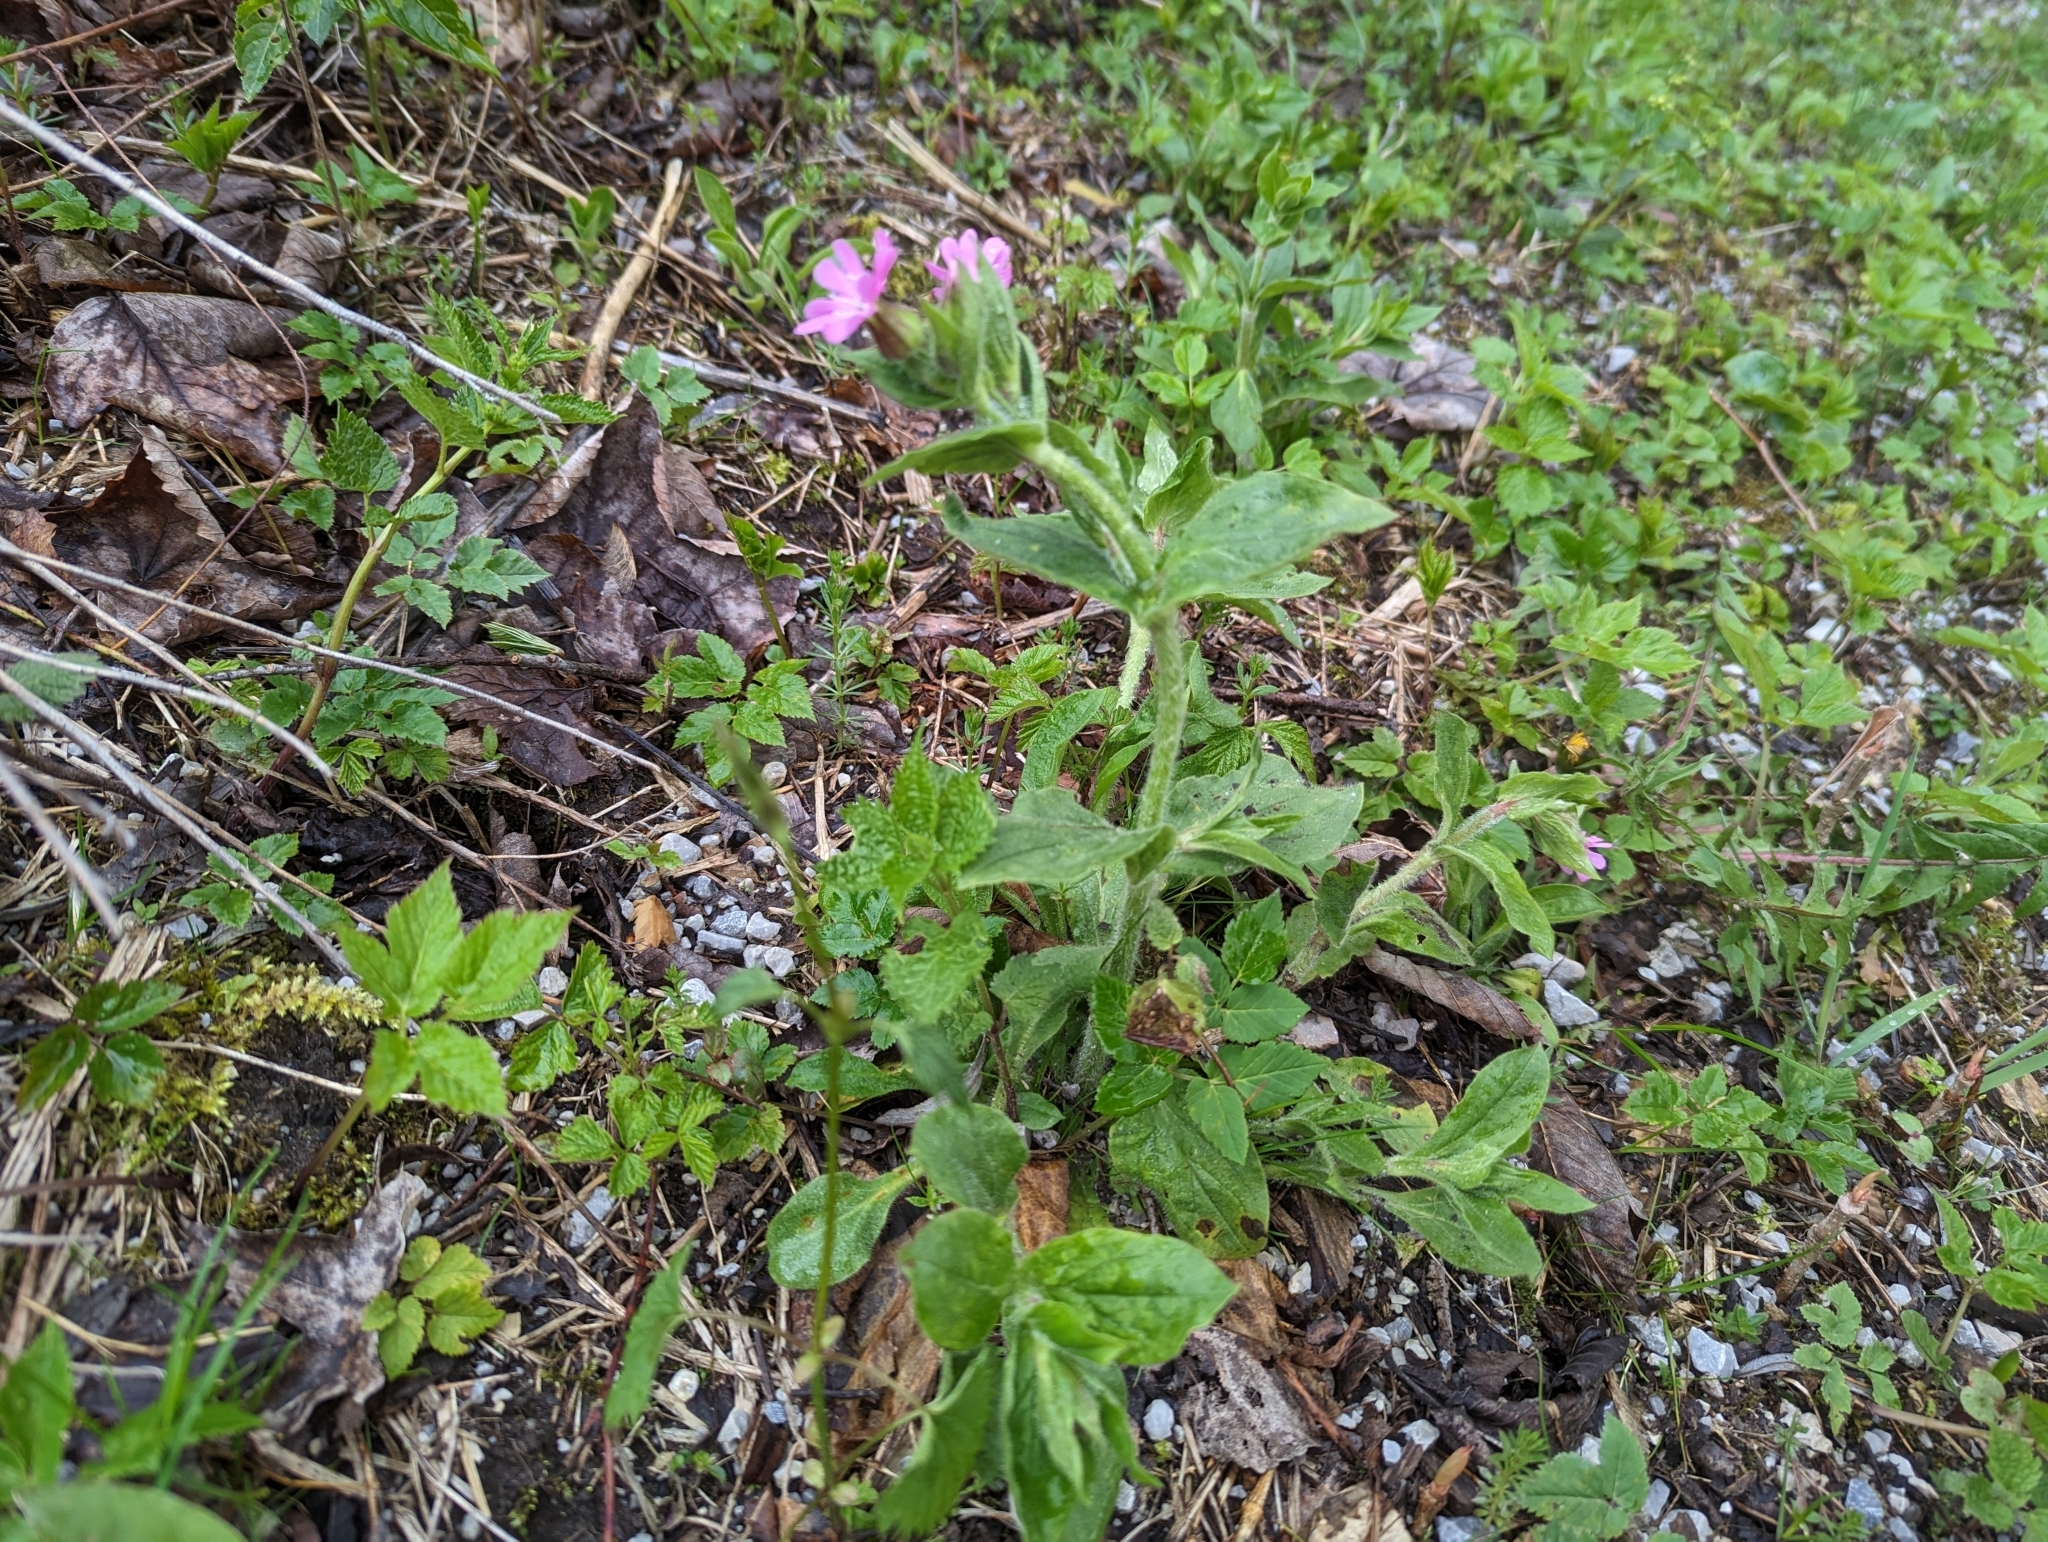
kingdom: Plantae
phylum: Tracheophyta
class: Magnoliopsida
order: Caryophyllales
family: Caryophyllaceae
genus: Silene
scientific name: Silene dioica
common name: Red campion
